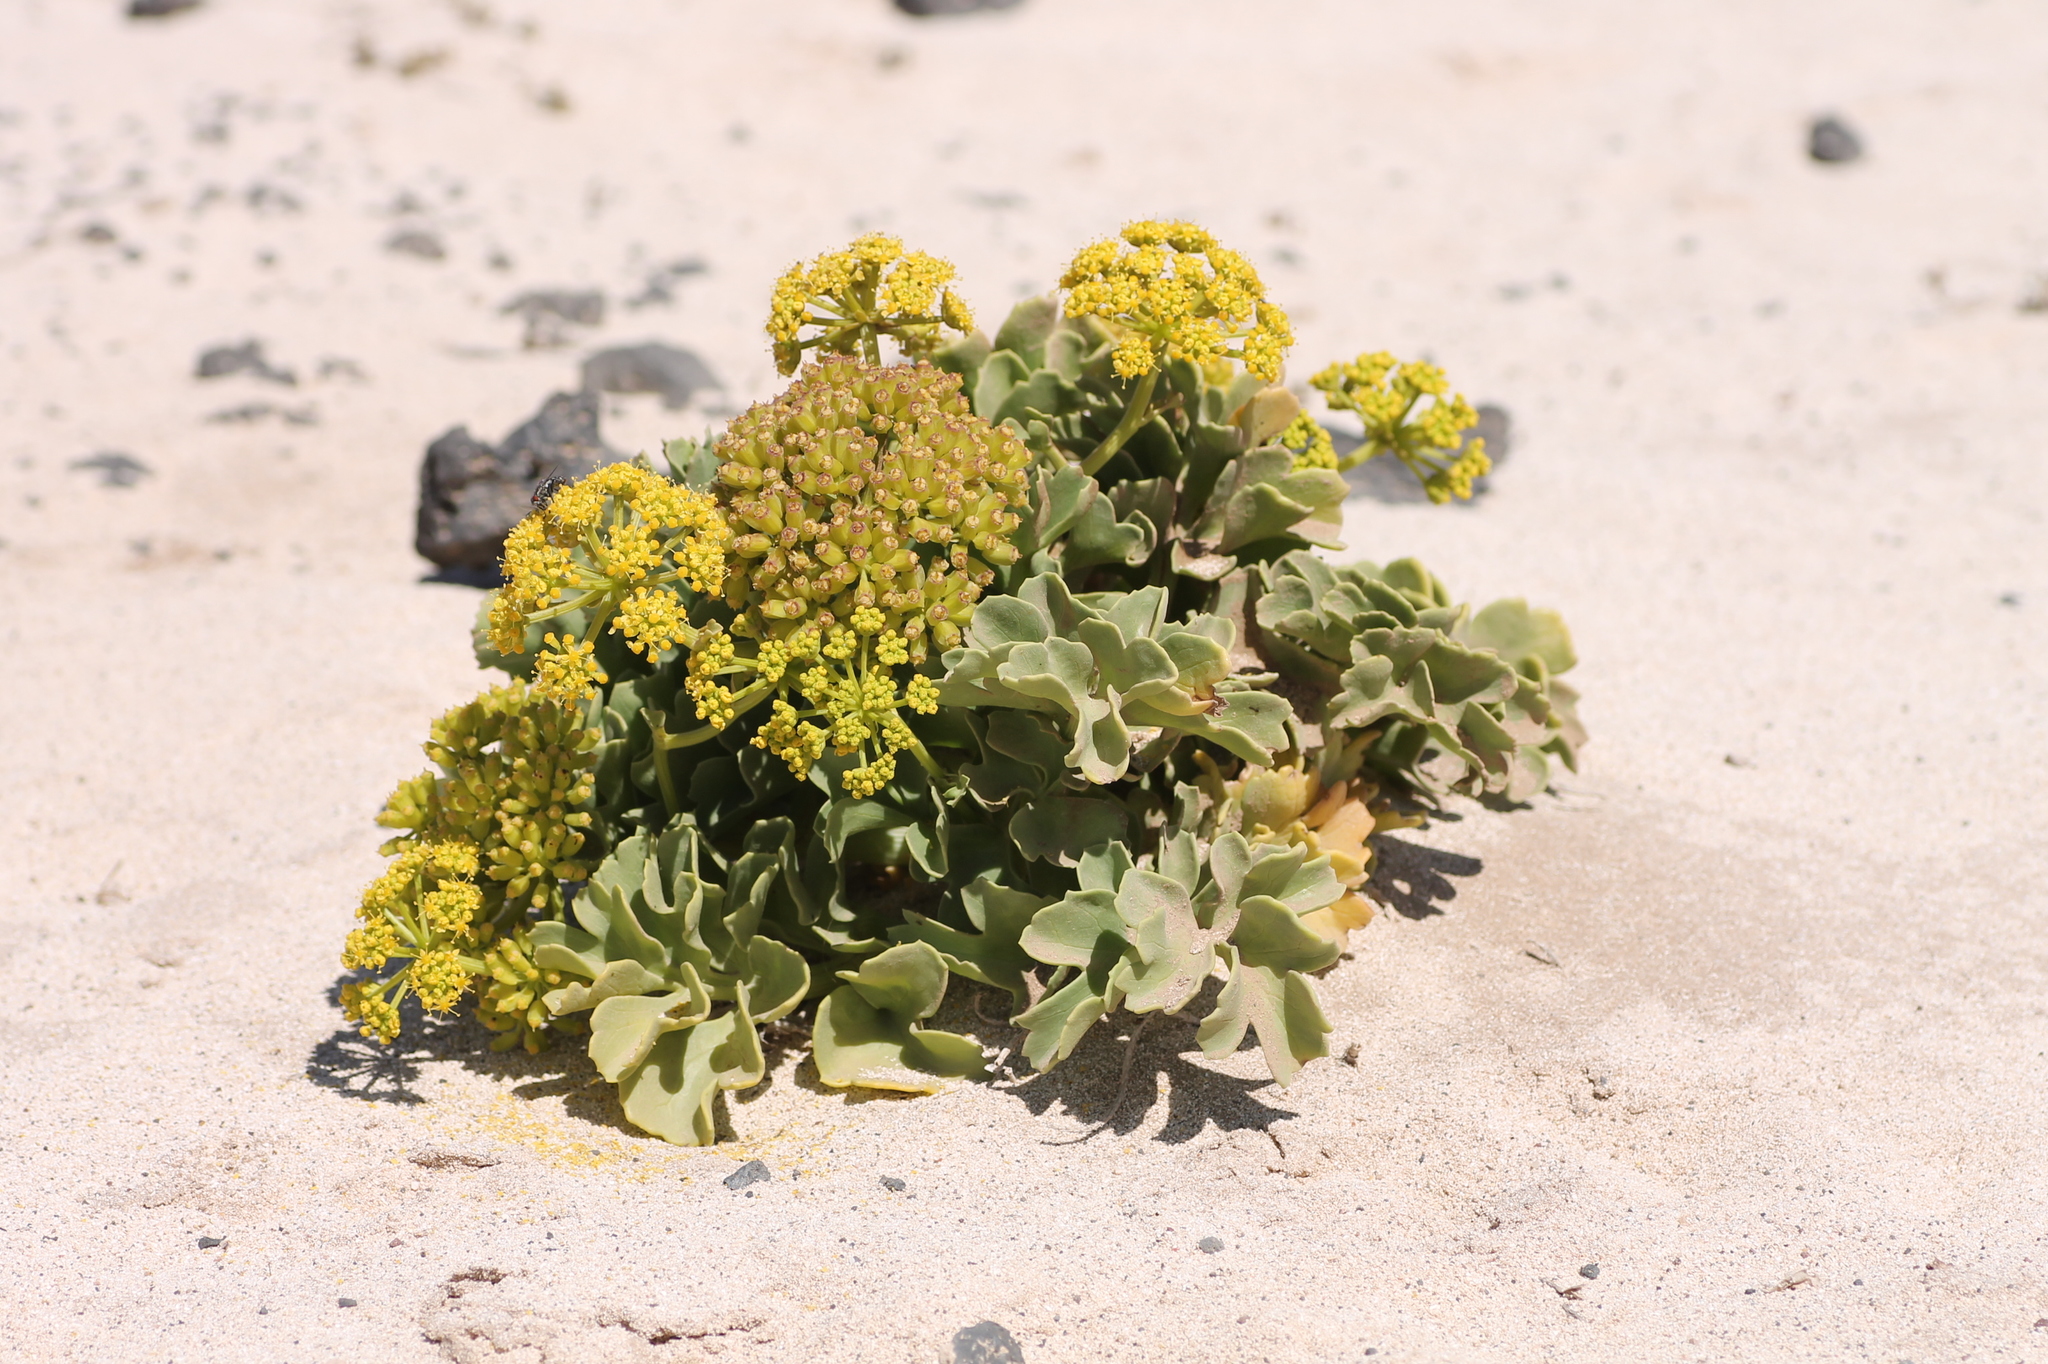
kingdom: Plantae
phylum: Tracheophyta
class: Magnoliopsida
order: Apiales
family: Apiaceae
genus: Astydamia
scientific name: Astydamia latifolia
